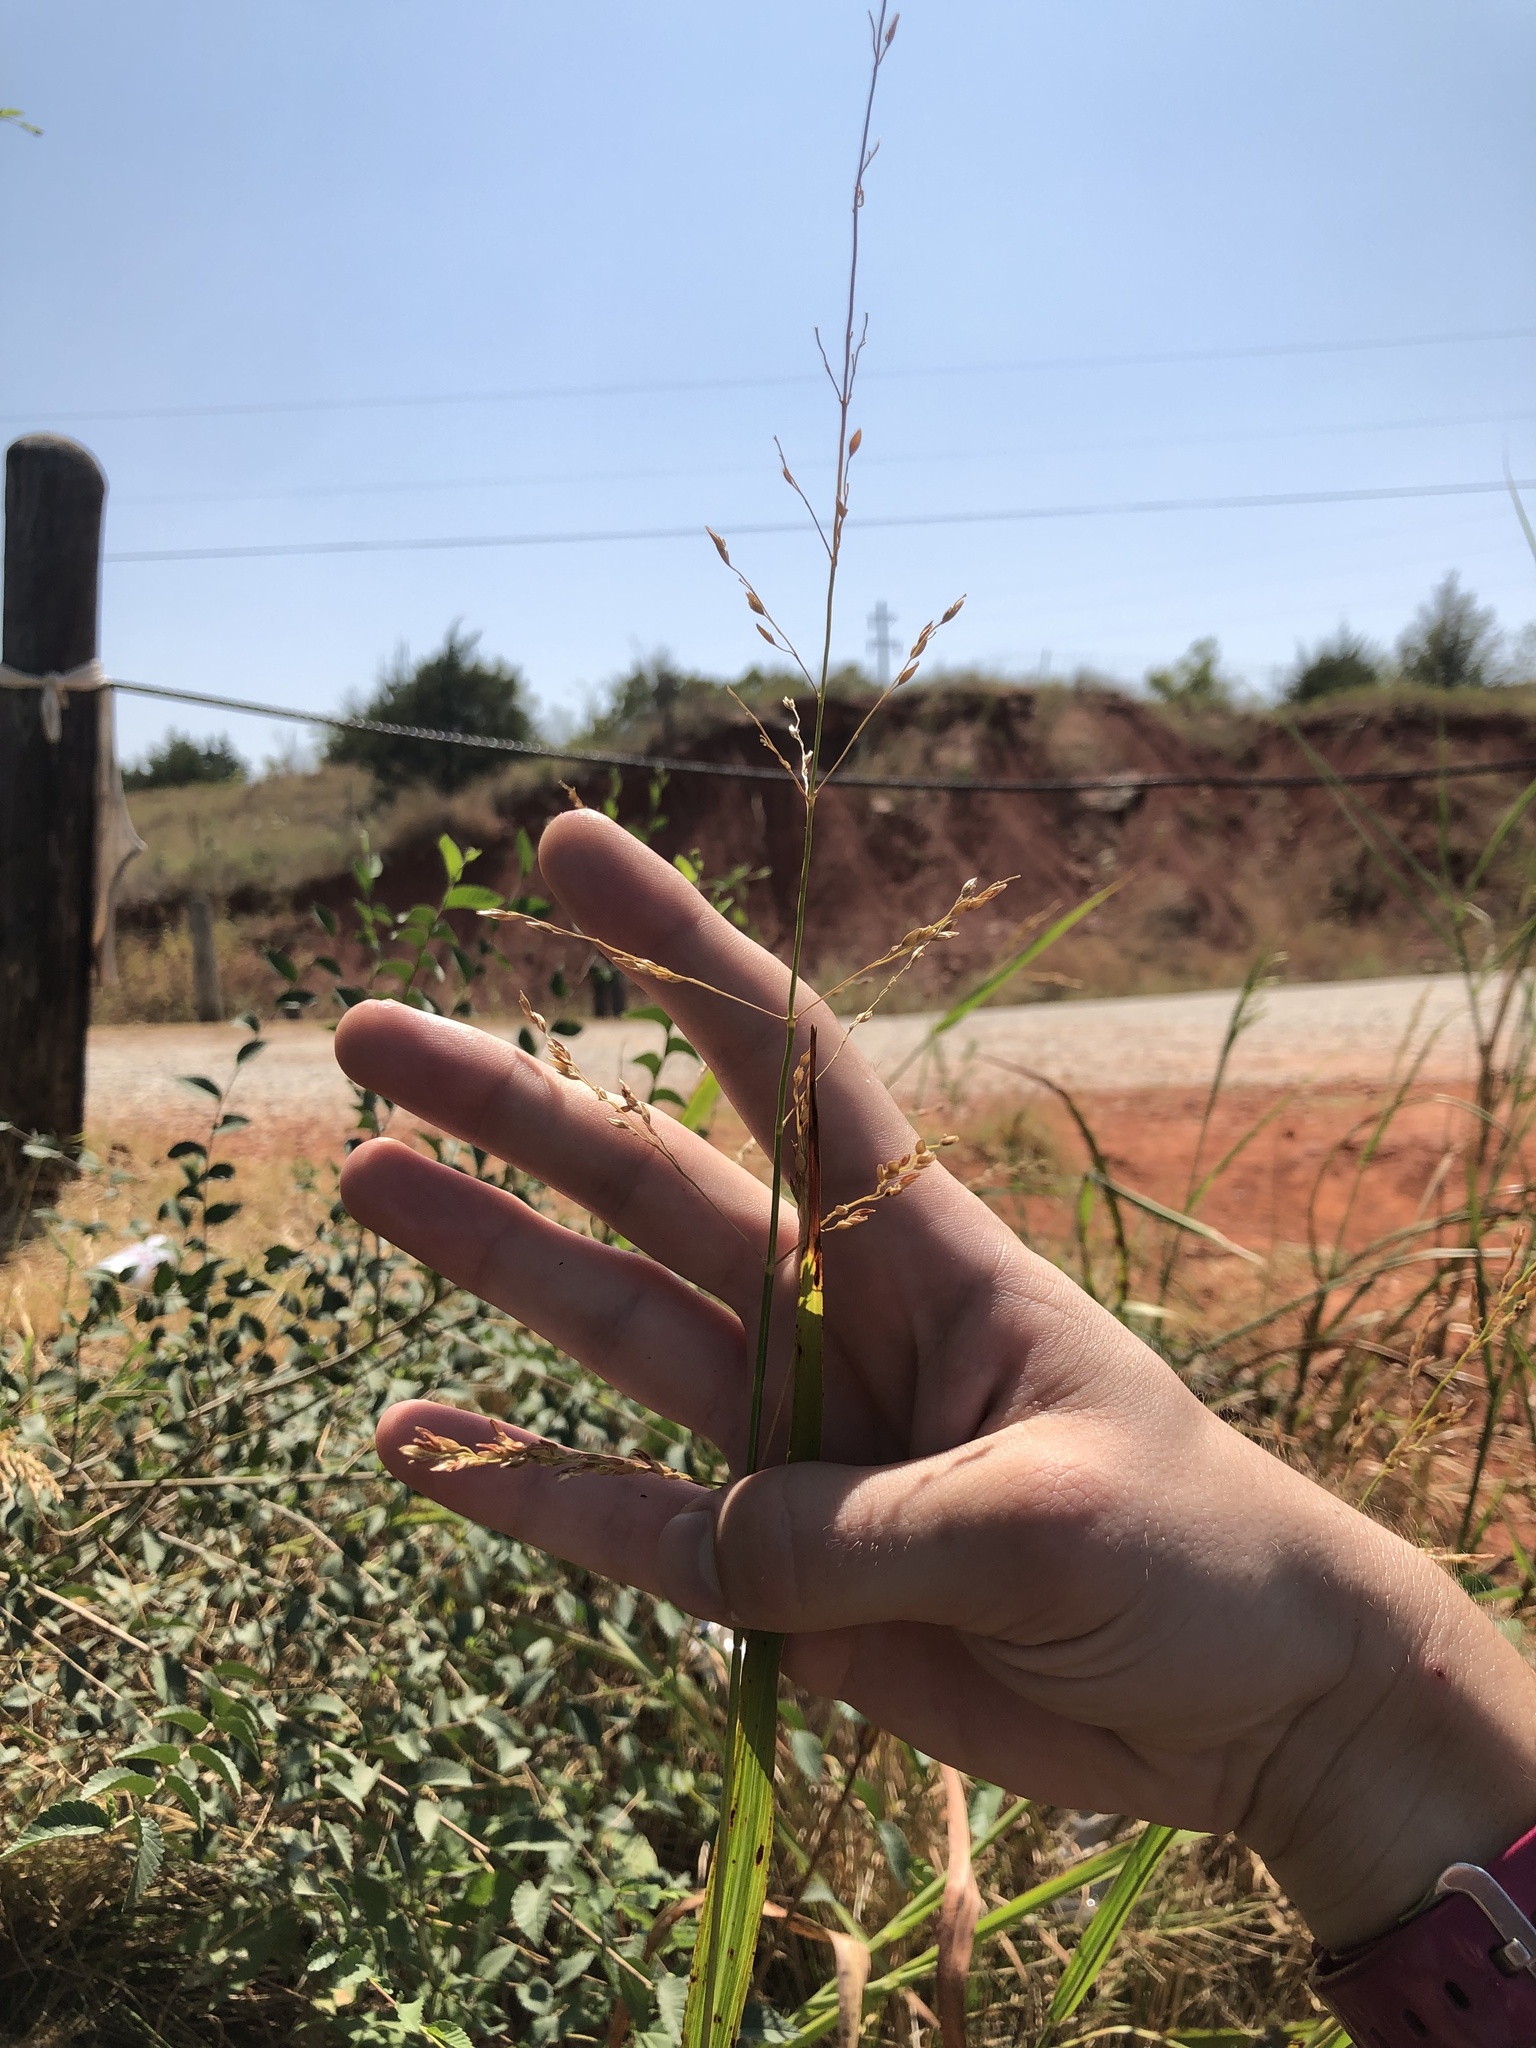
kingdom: Plantae
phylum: Tracheophyta
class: Liliopsida
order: Poales
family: Poaceae
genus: Sorghum
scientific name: Sorghum halepense
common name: Johnson-grass
